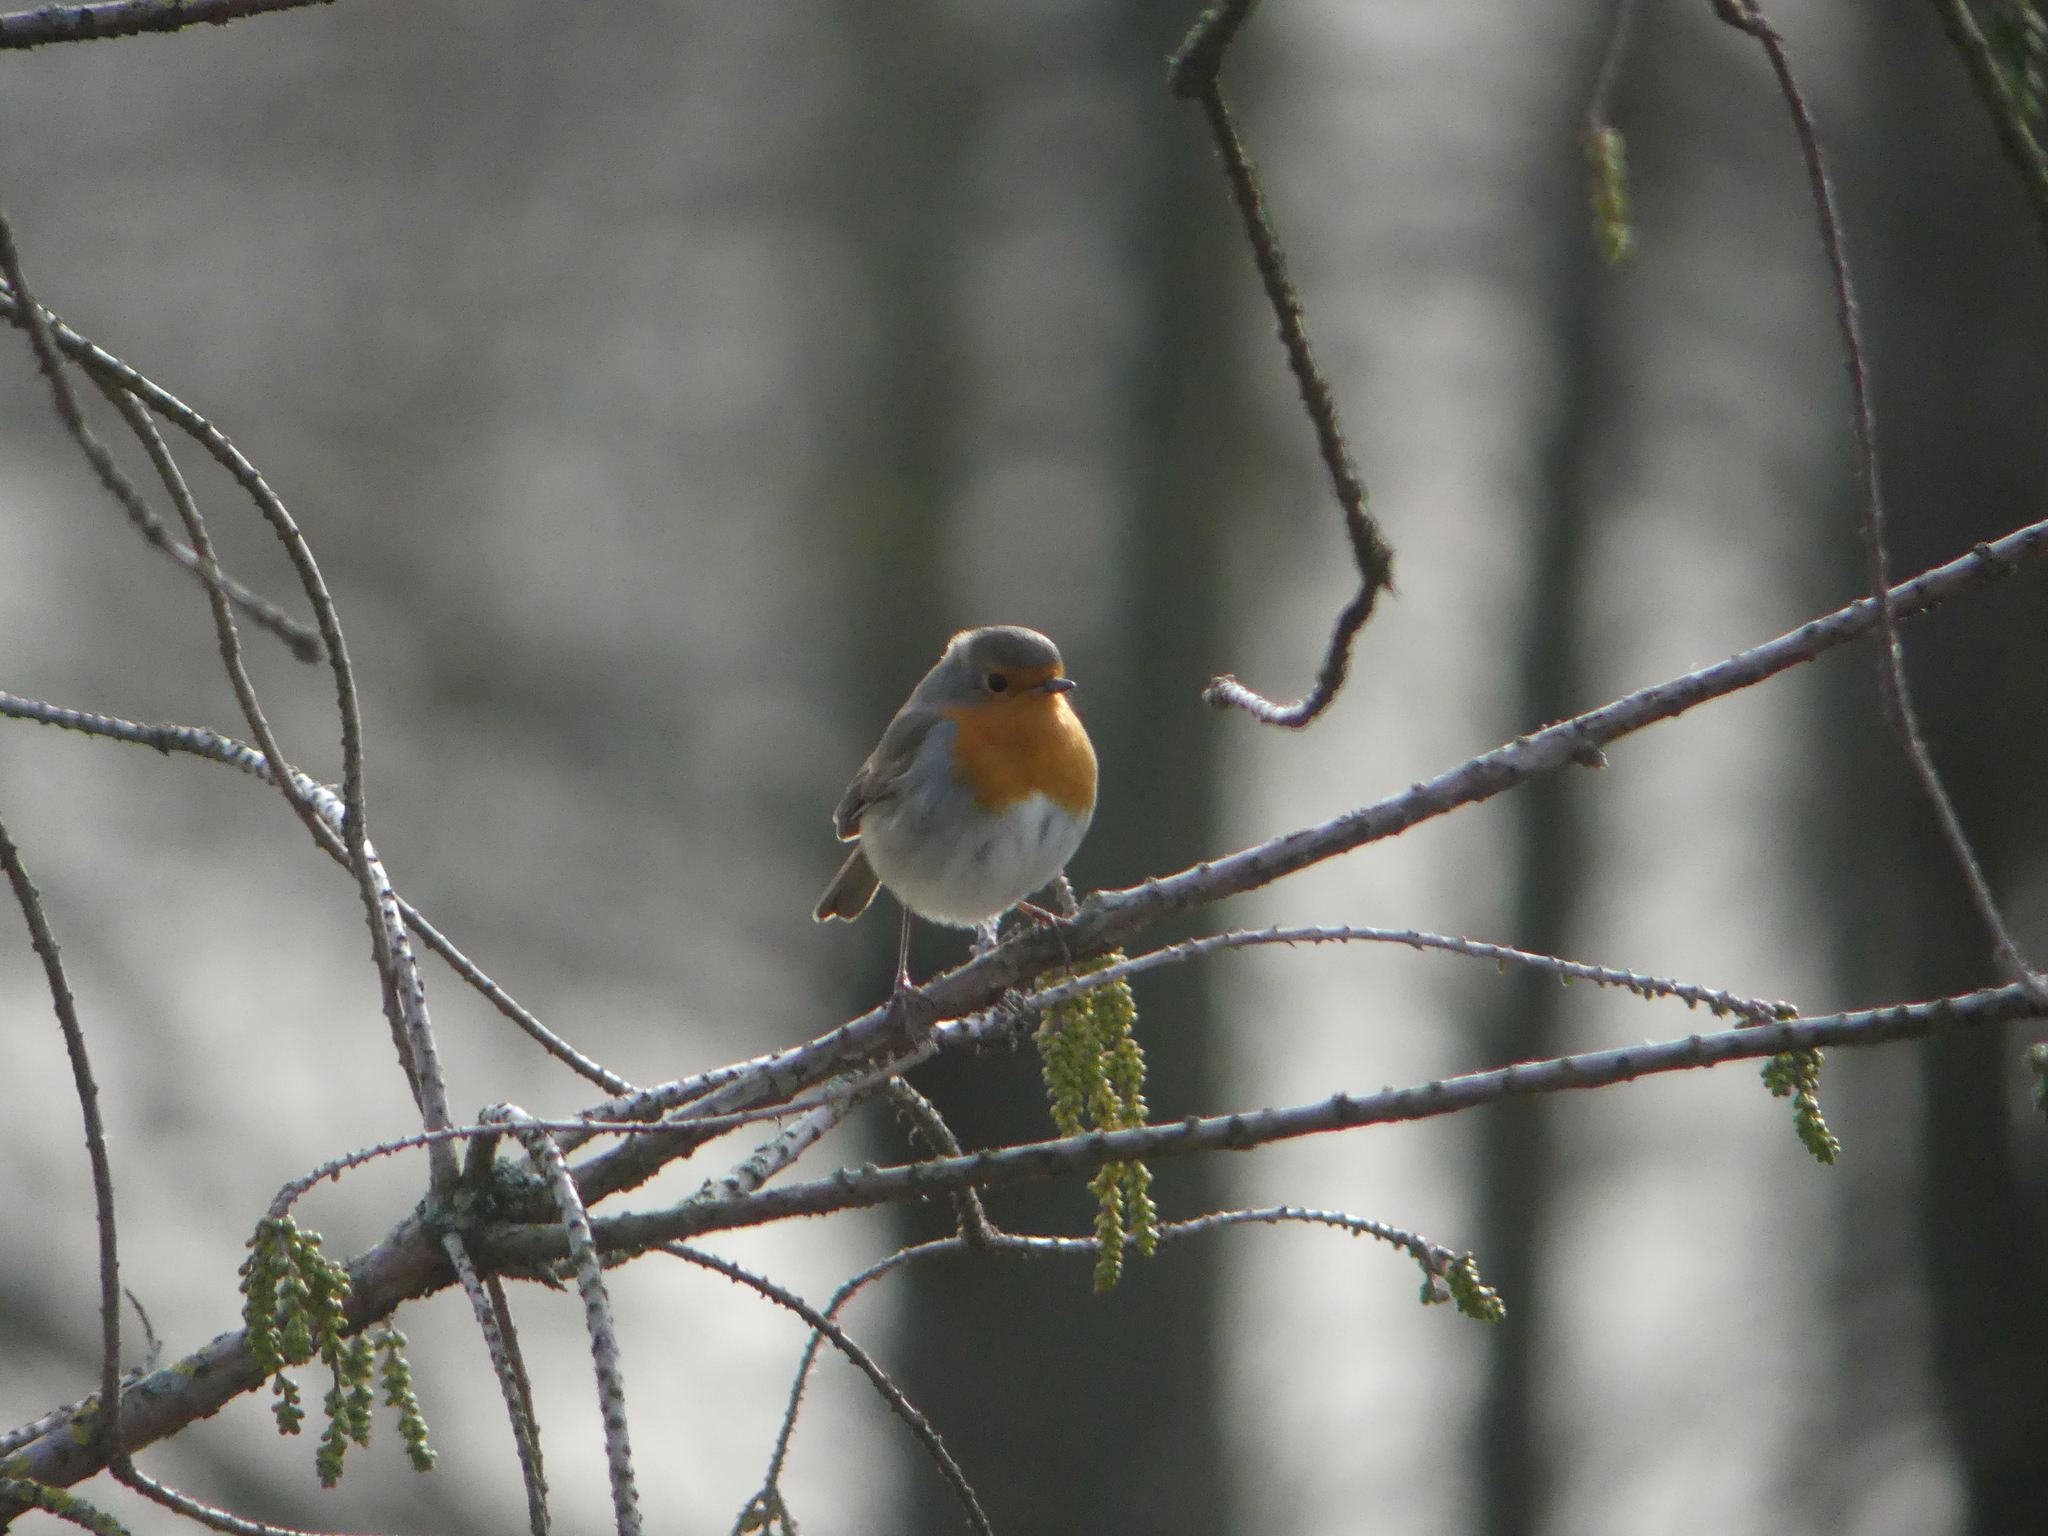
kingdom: Animalia
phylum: Chordata
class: Aves
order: Passeriformes
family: Muscicapidae
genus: Erithacus
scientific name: Erithacus rubecula
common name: European robin
